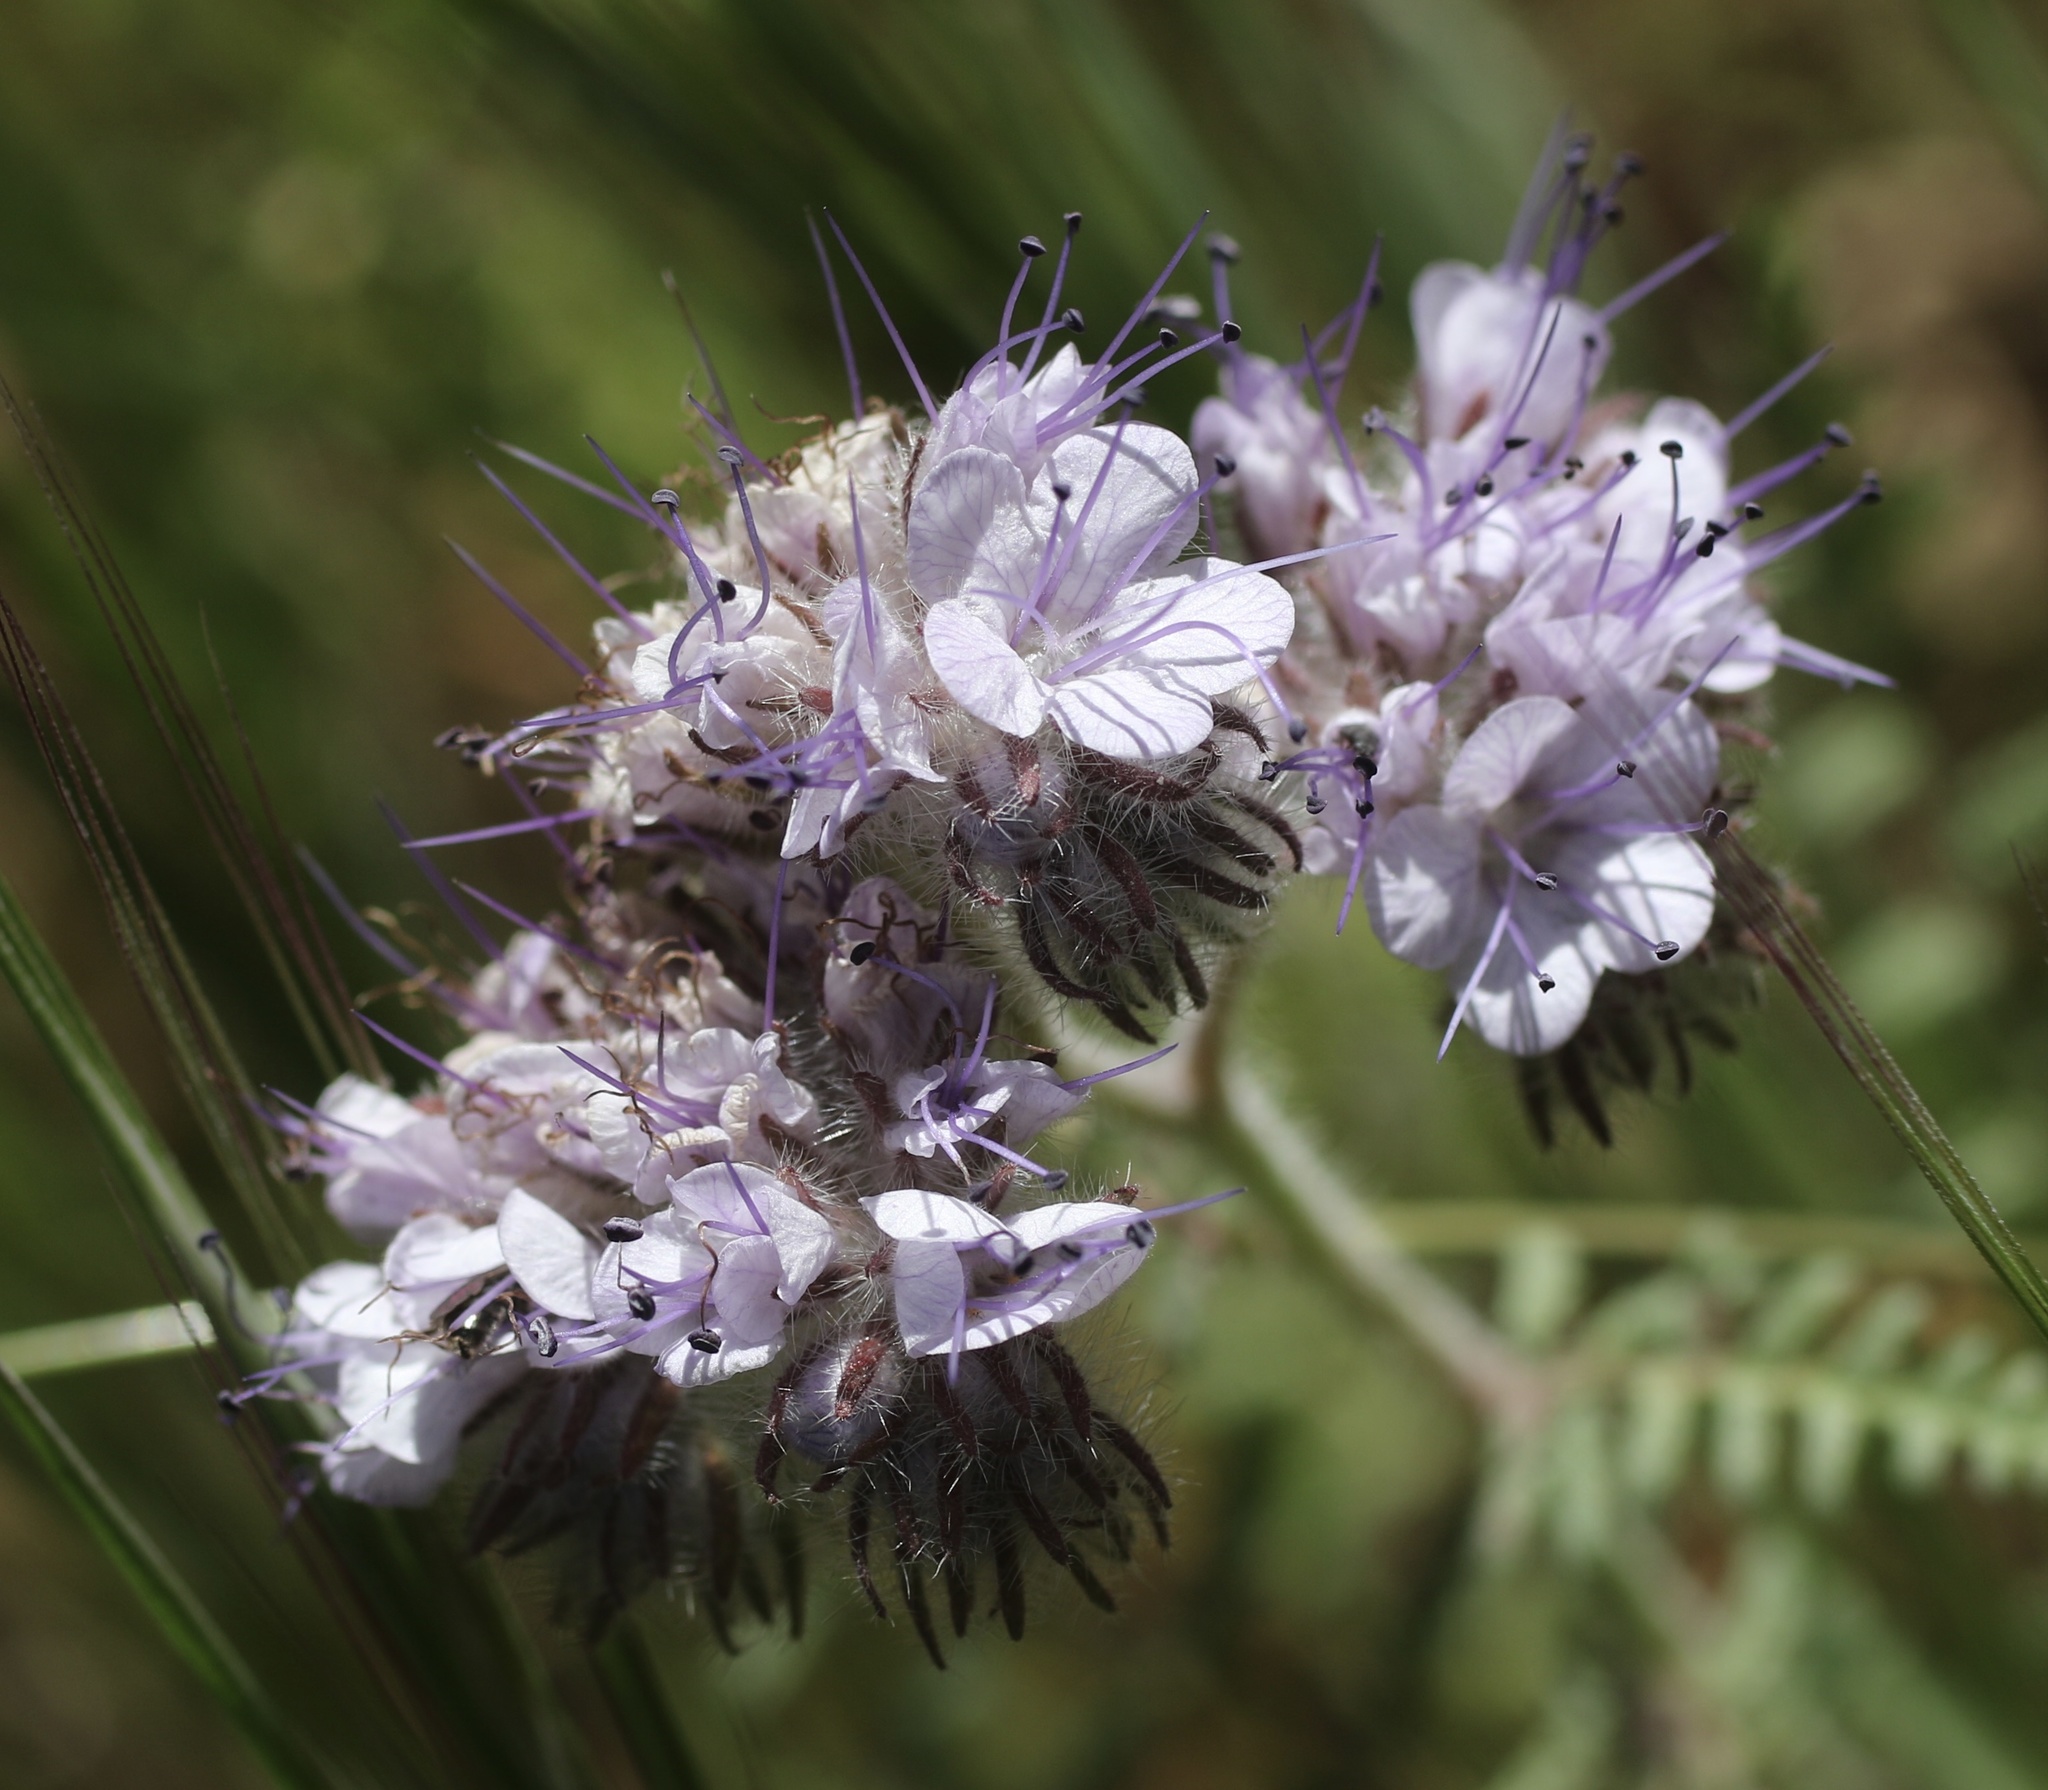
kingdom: Plantae
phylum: Tracheophyta
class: Magnoliopsida
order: Boraginales
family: Hydrophyllaceae
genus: Phacelia
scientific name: Phacelia tanacetifolia
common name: Phacelia
